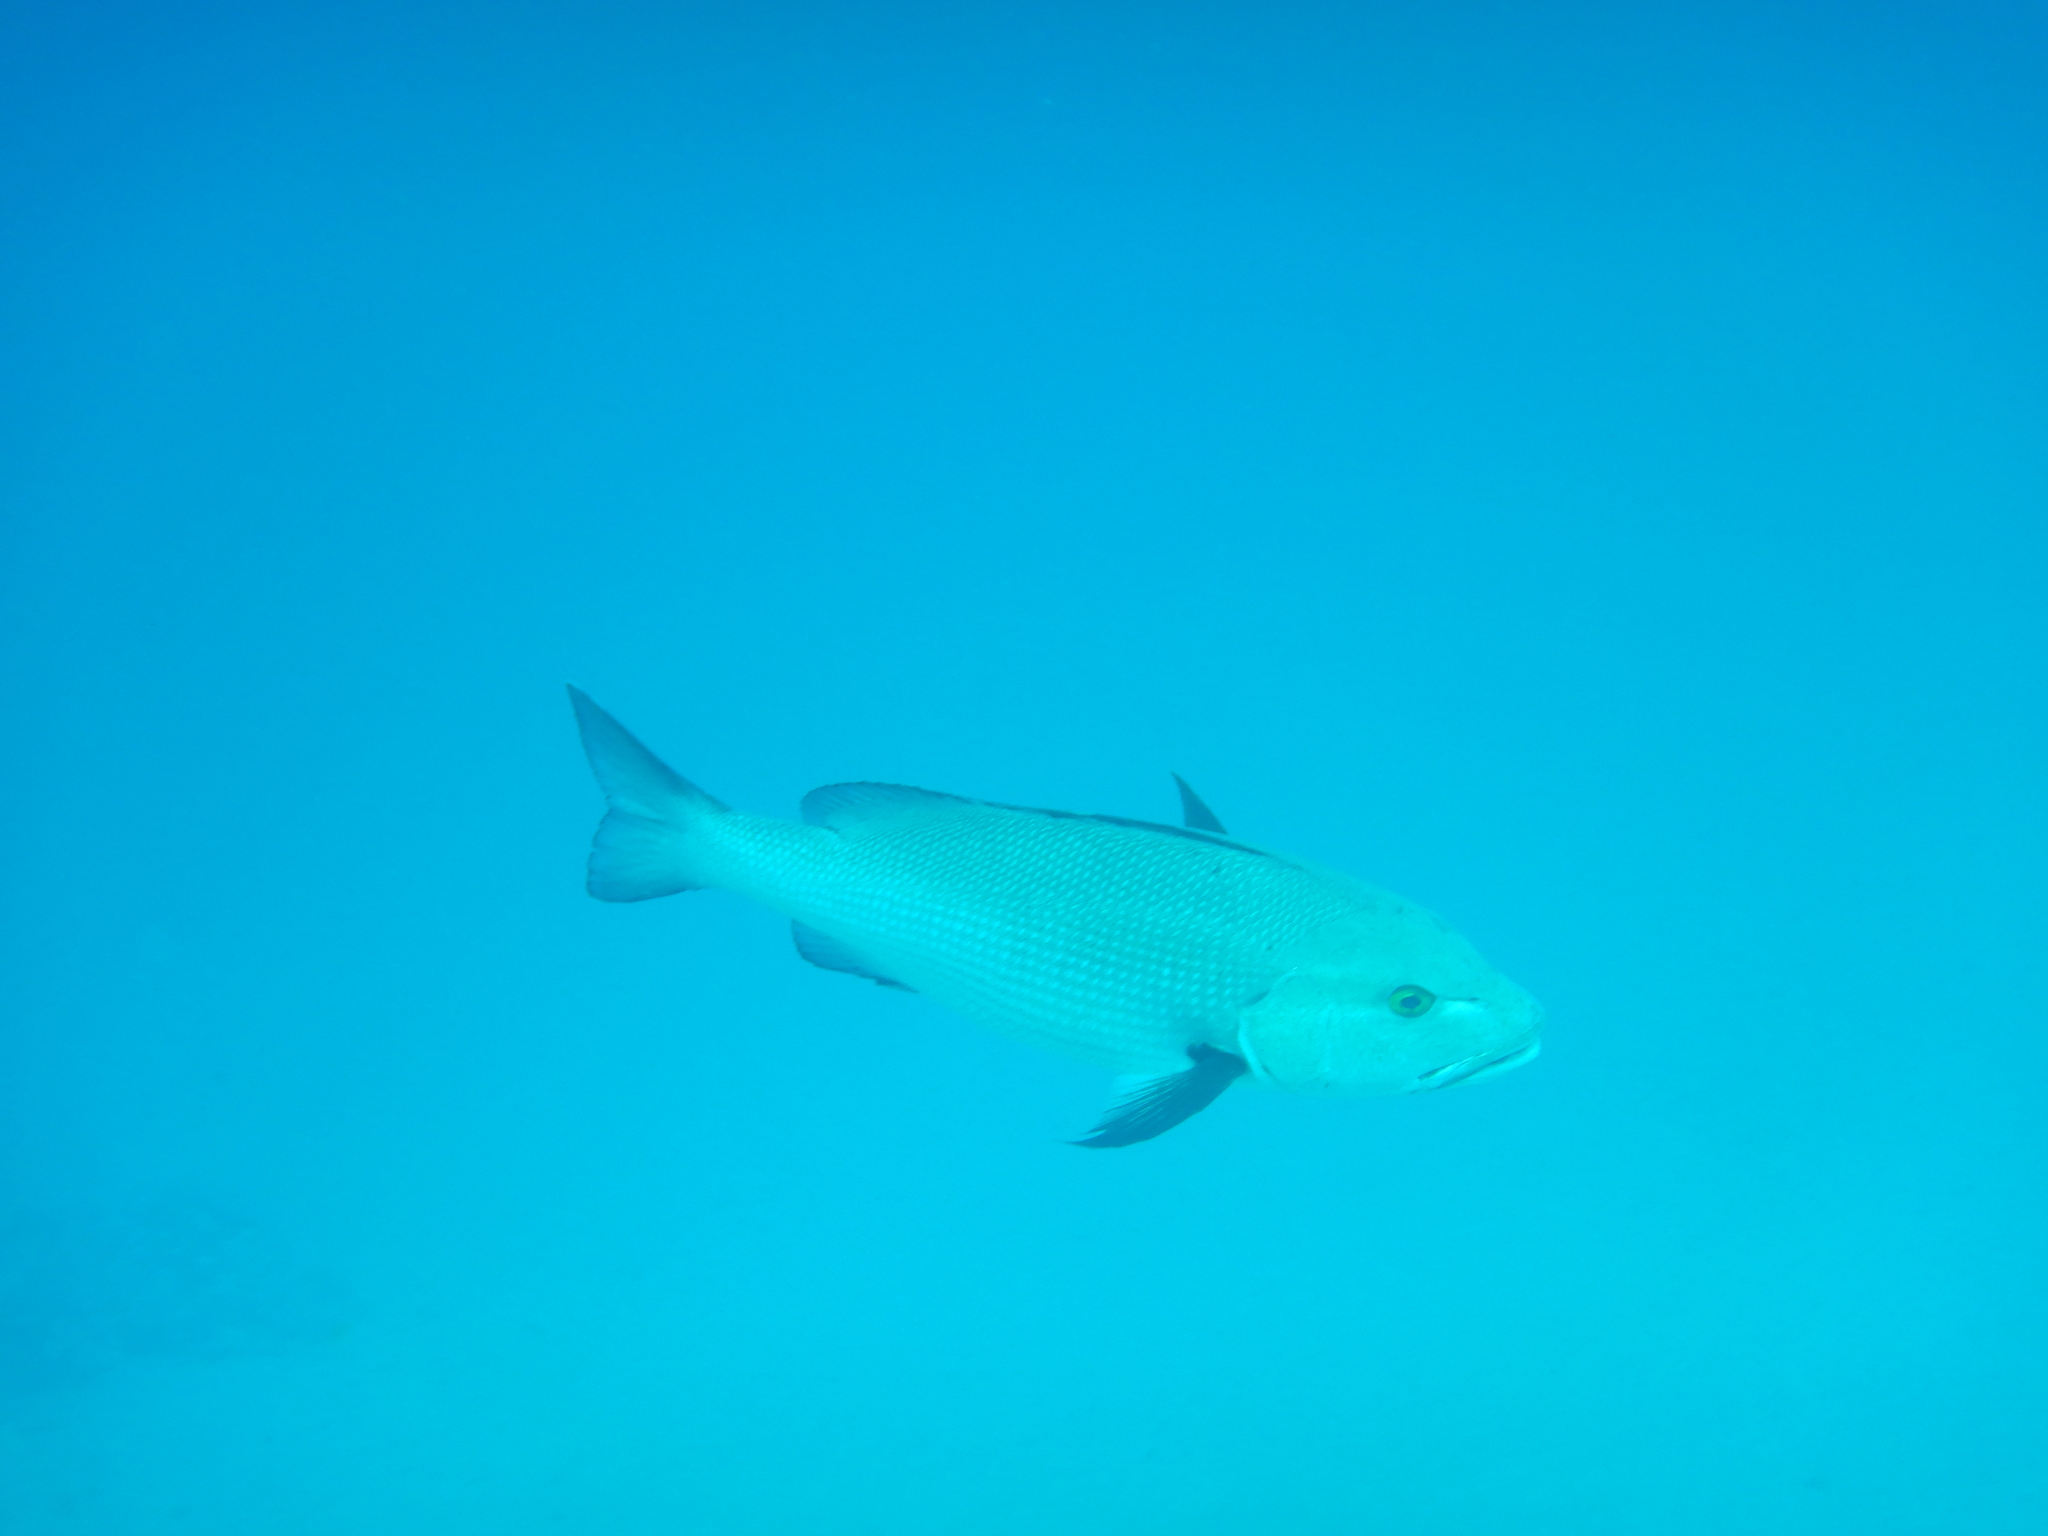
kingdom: Animalia
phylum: Chordata
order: Perciformes
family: Lutjanidae
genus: Lutjanus
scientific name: Lutjanus bohar
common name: Red bass
